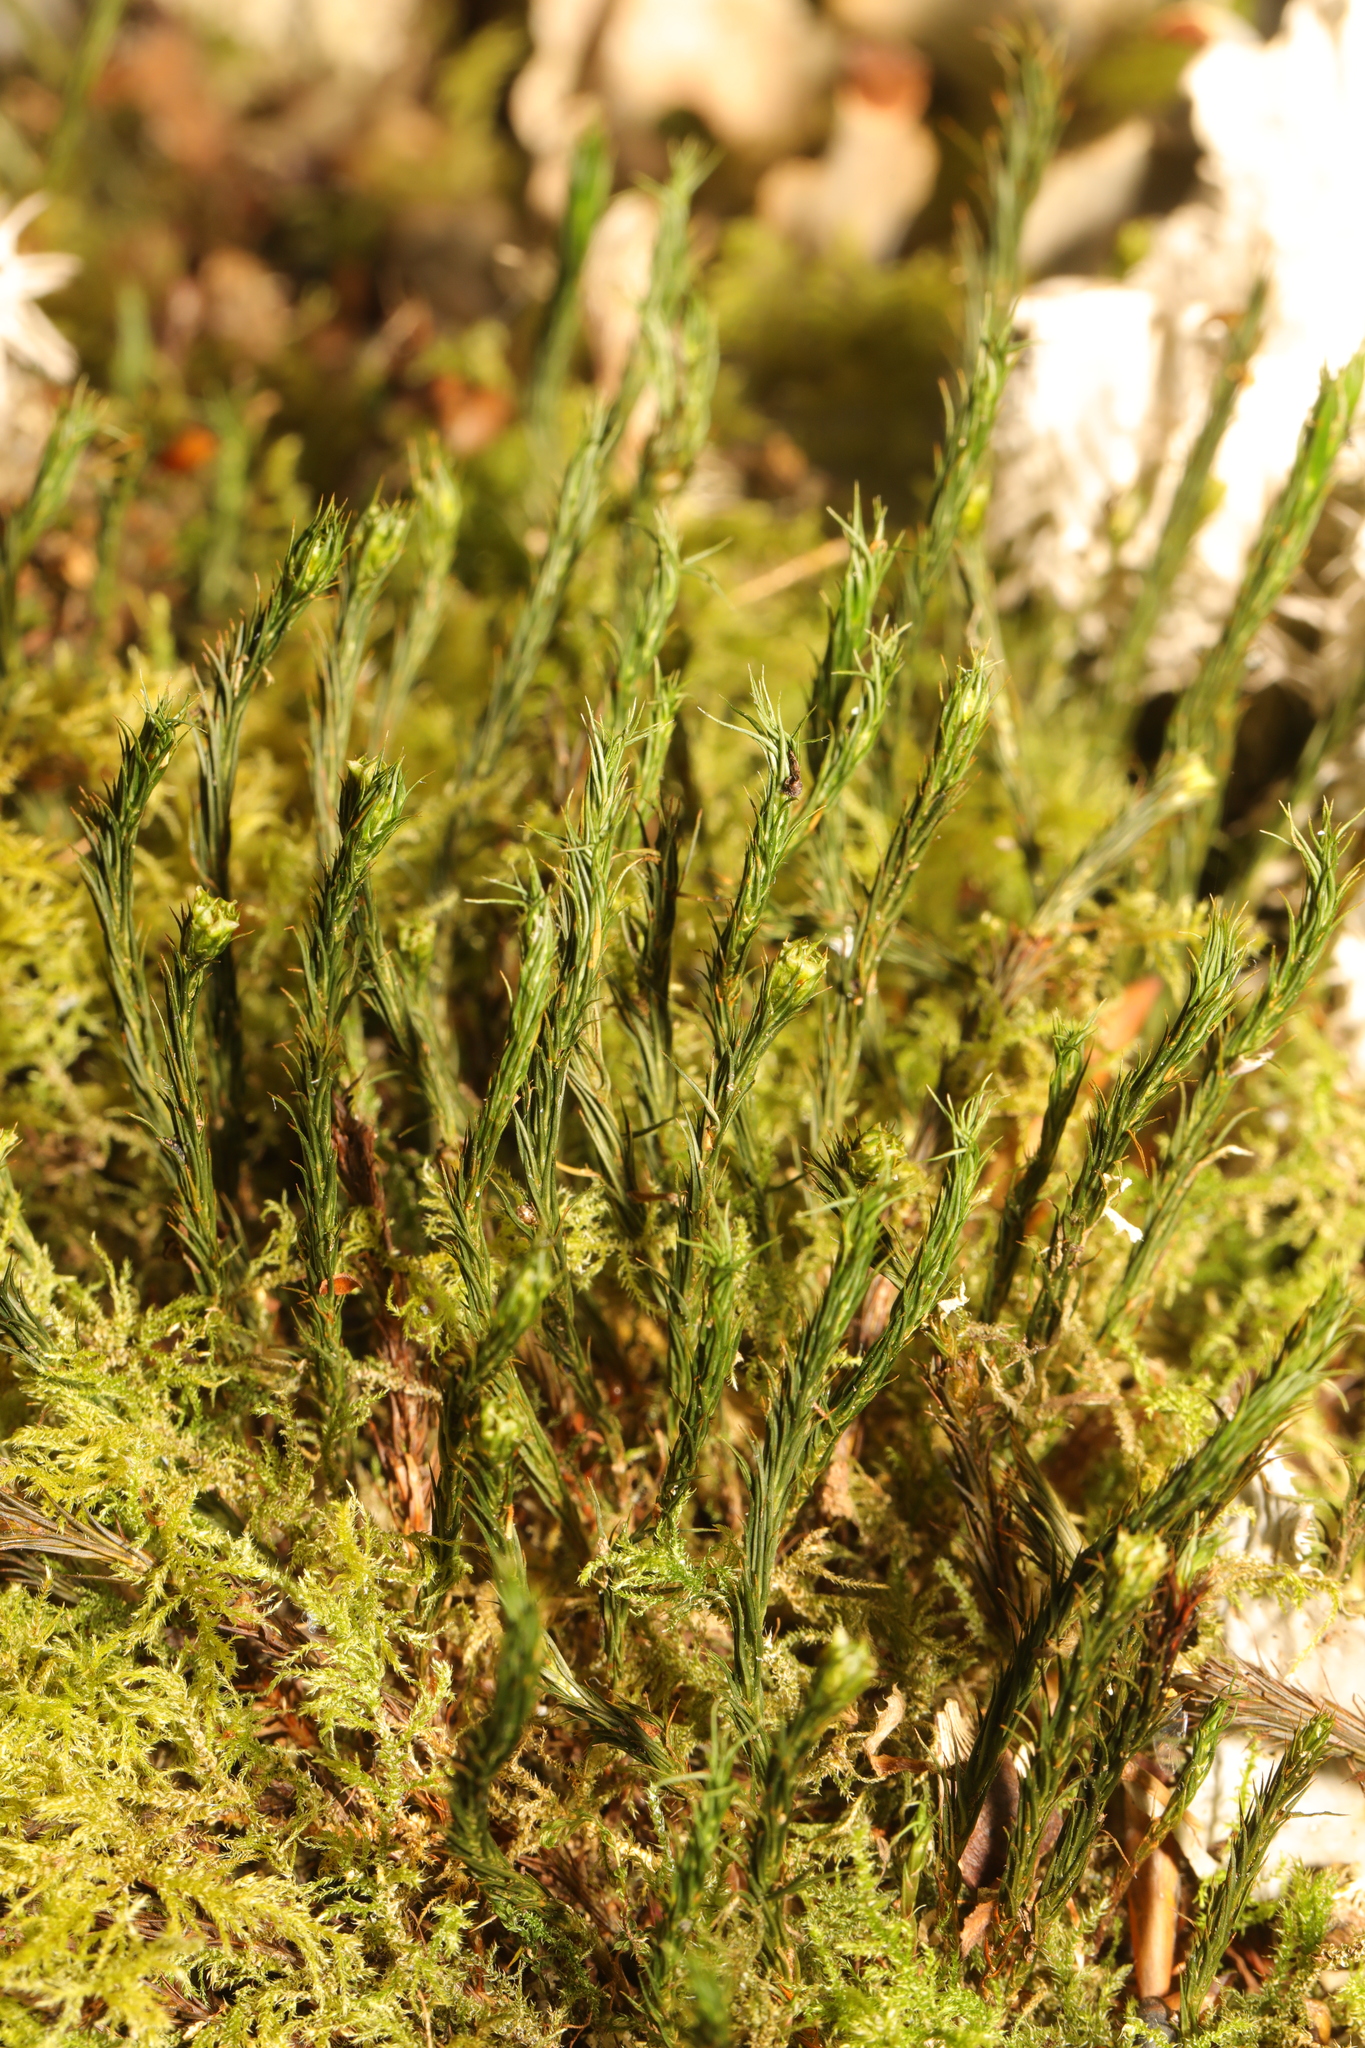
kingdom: Plantae
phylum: Bryophyta
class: Polytrichopsida
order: Polytrichales
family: Polytrichaceae
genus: Polytrichum
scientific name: Polytrichum formosum
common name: Bank haircap moss
